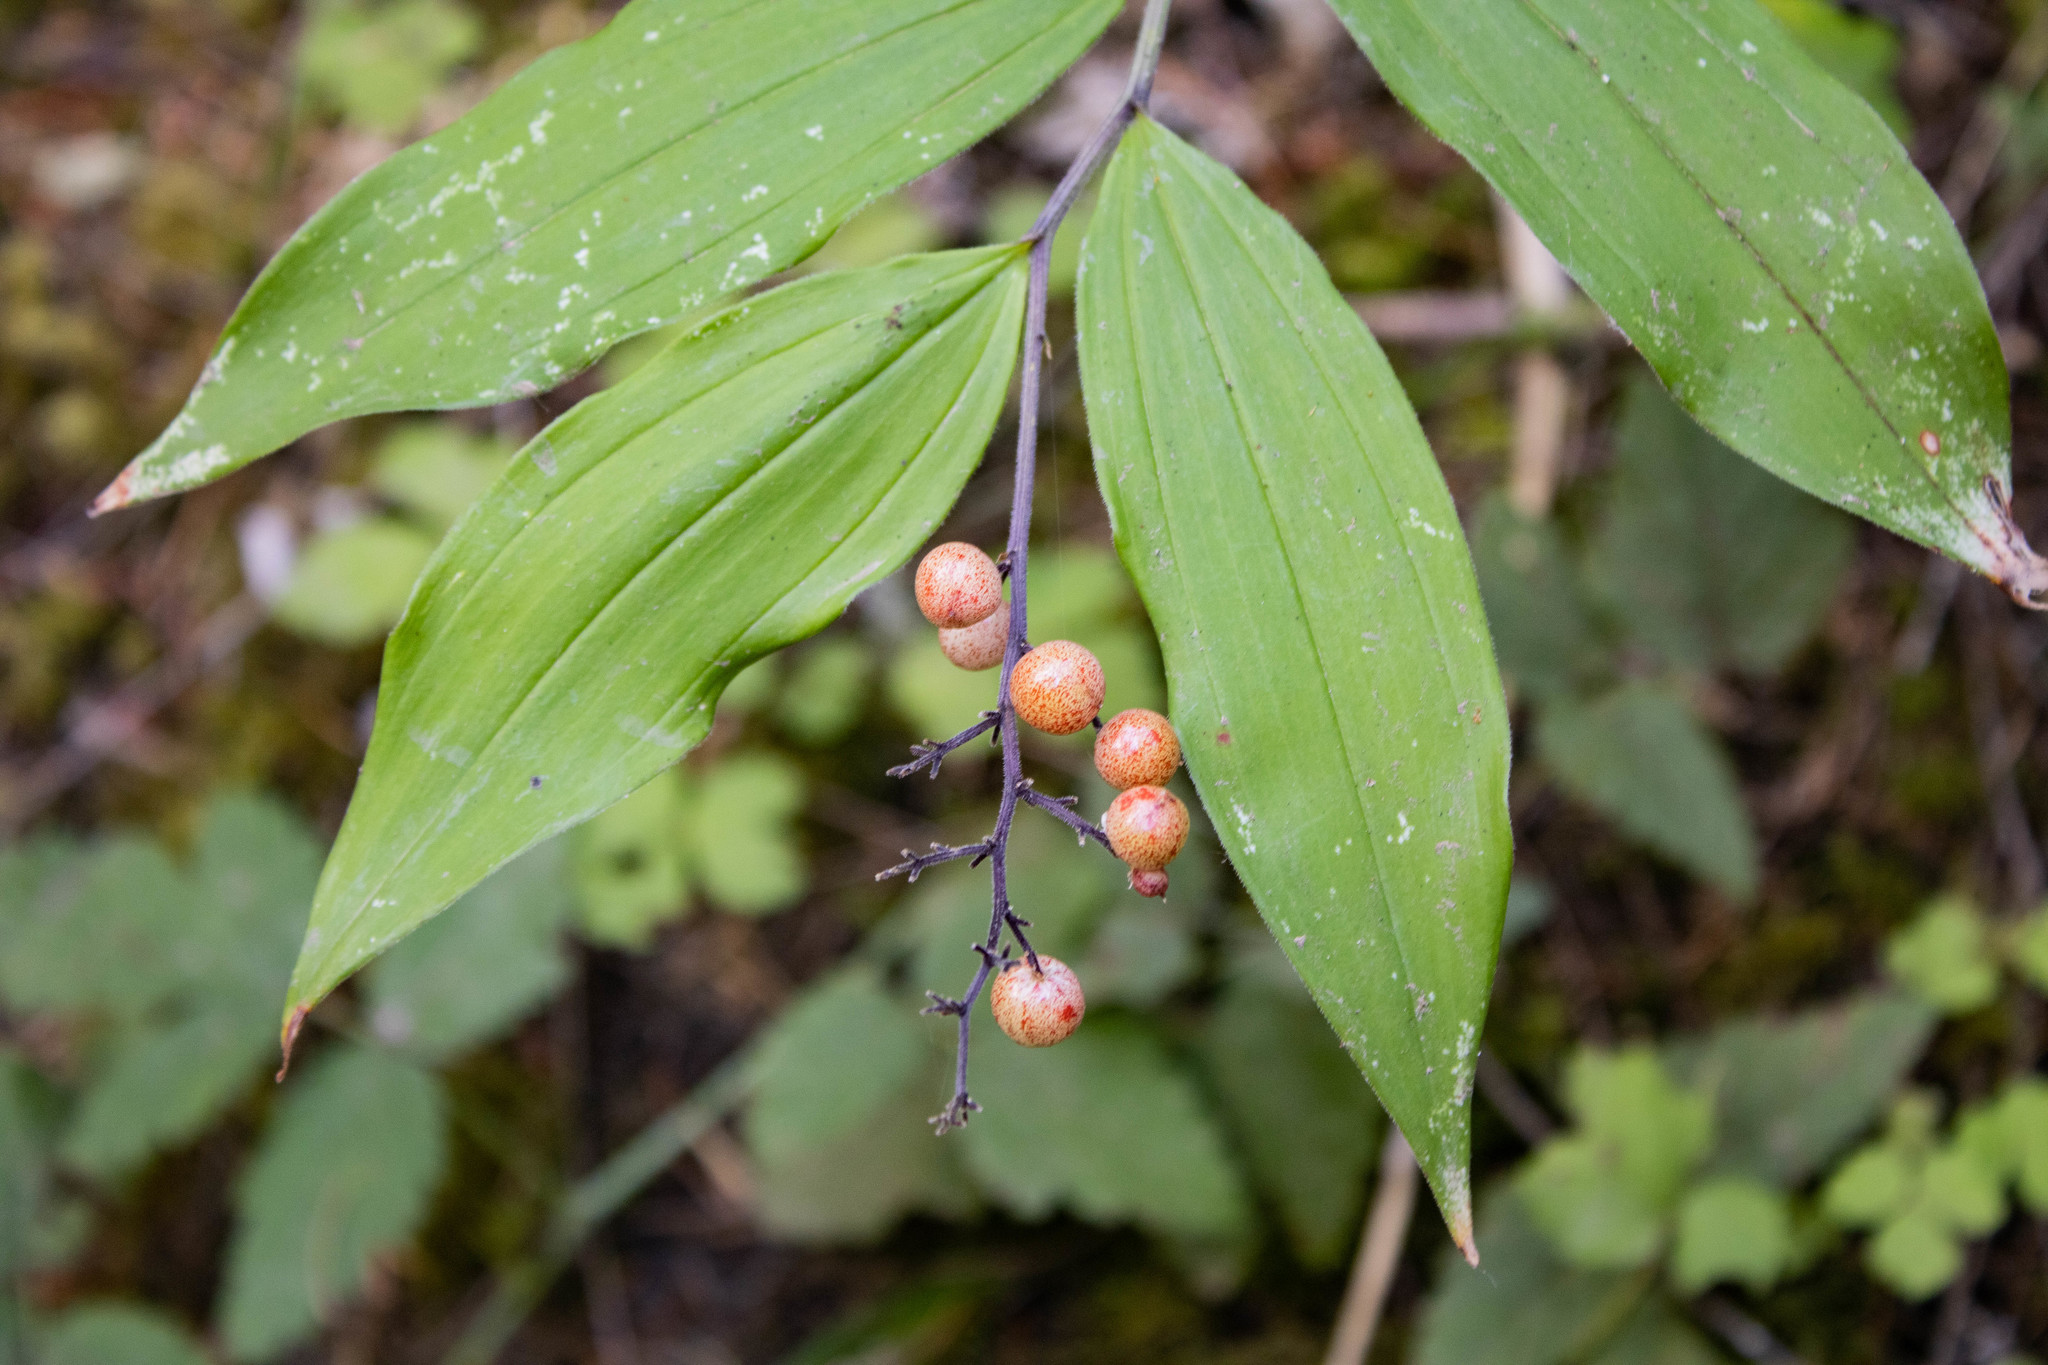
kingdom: Plantae
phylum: Tracheophyta
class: Liliopsida
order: Asparagales
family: Asparagaceae
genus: Maianthemum
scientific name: Maianthemum racemosum
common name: False spikenard
